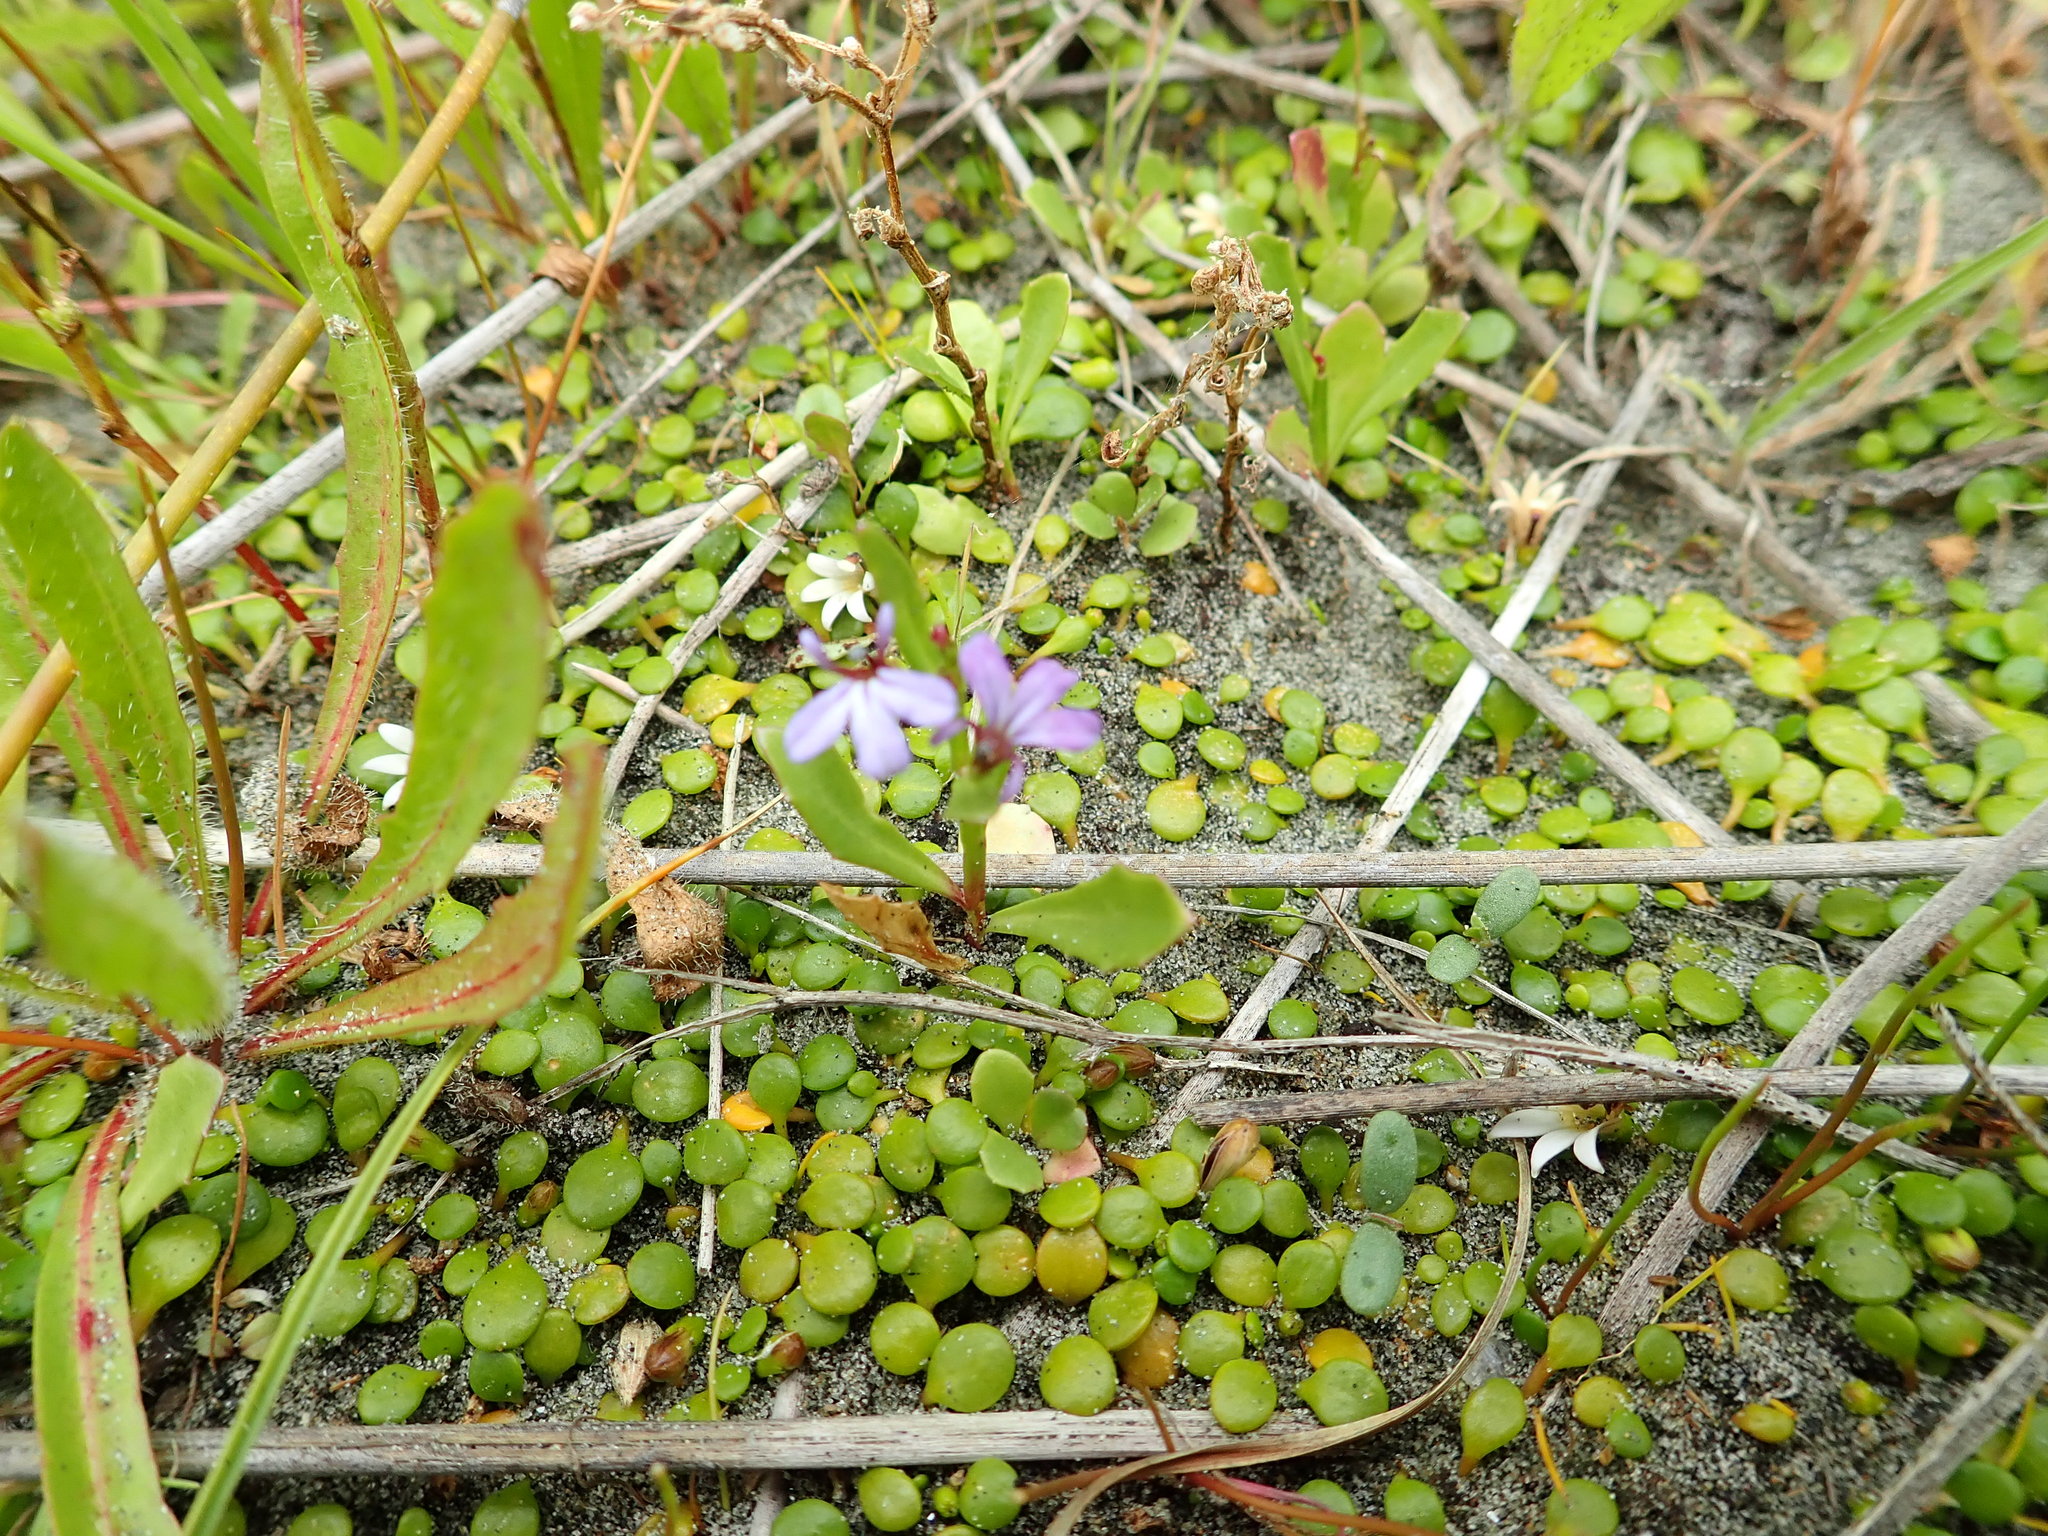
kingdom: Plantae
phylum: Tracheophyta
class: Magnoliopsida
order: Asterales
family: Campanulaceae
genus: Lobelia
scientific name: Lobelia anceps
